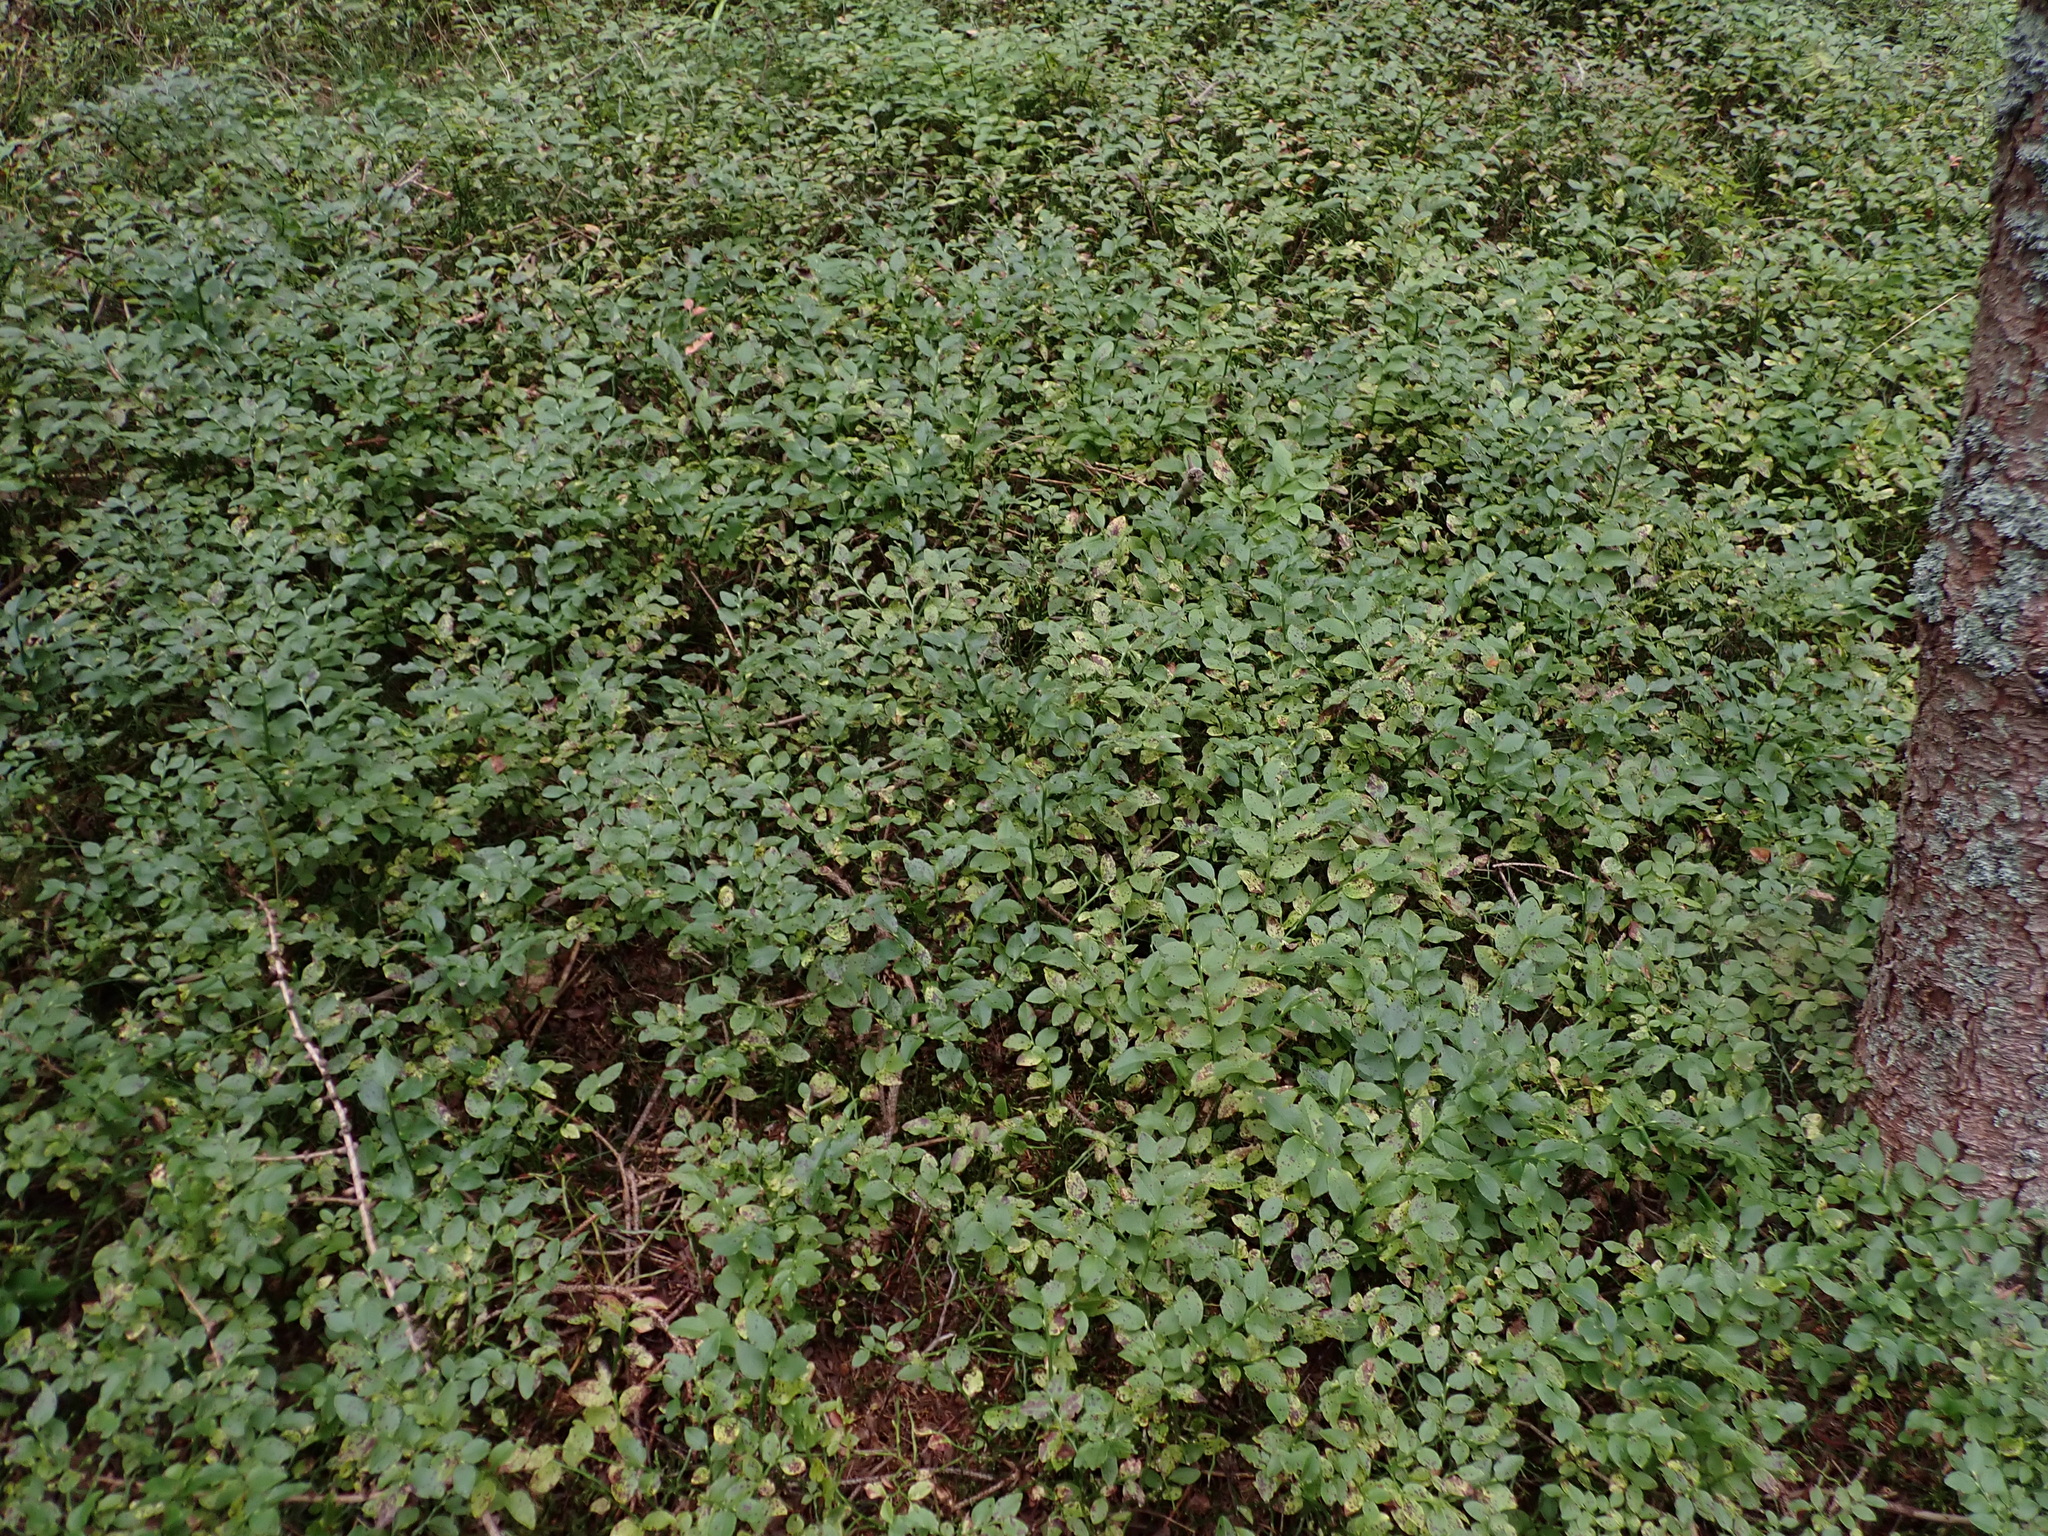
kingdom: Plantae
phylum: Tracheophyta
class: Magnoliopsida
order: Ericales
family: Ericaceae
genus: Vaccinium
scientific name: Vaccinium myrtillus
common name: Bilberry
